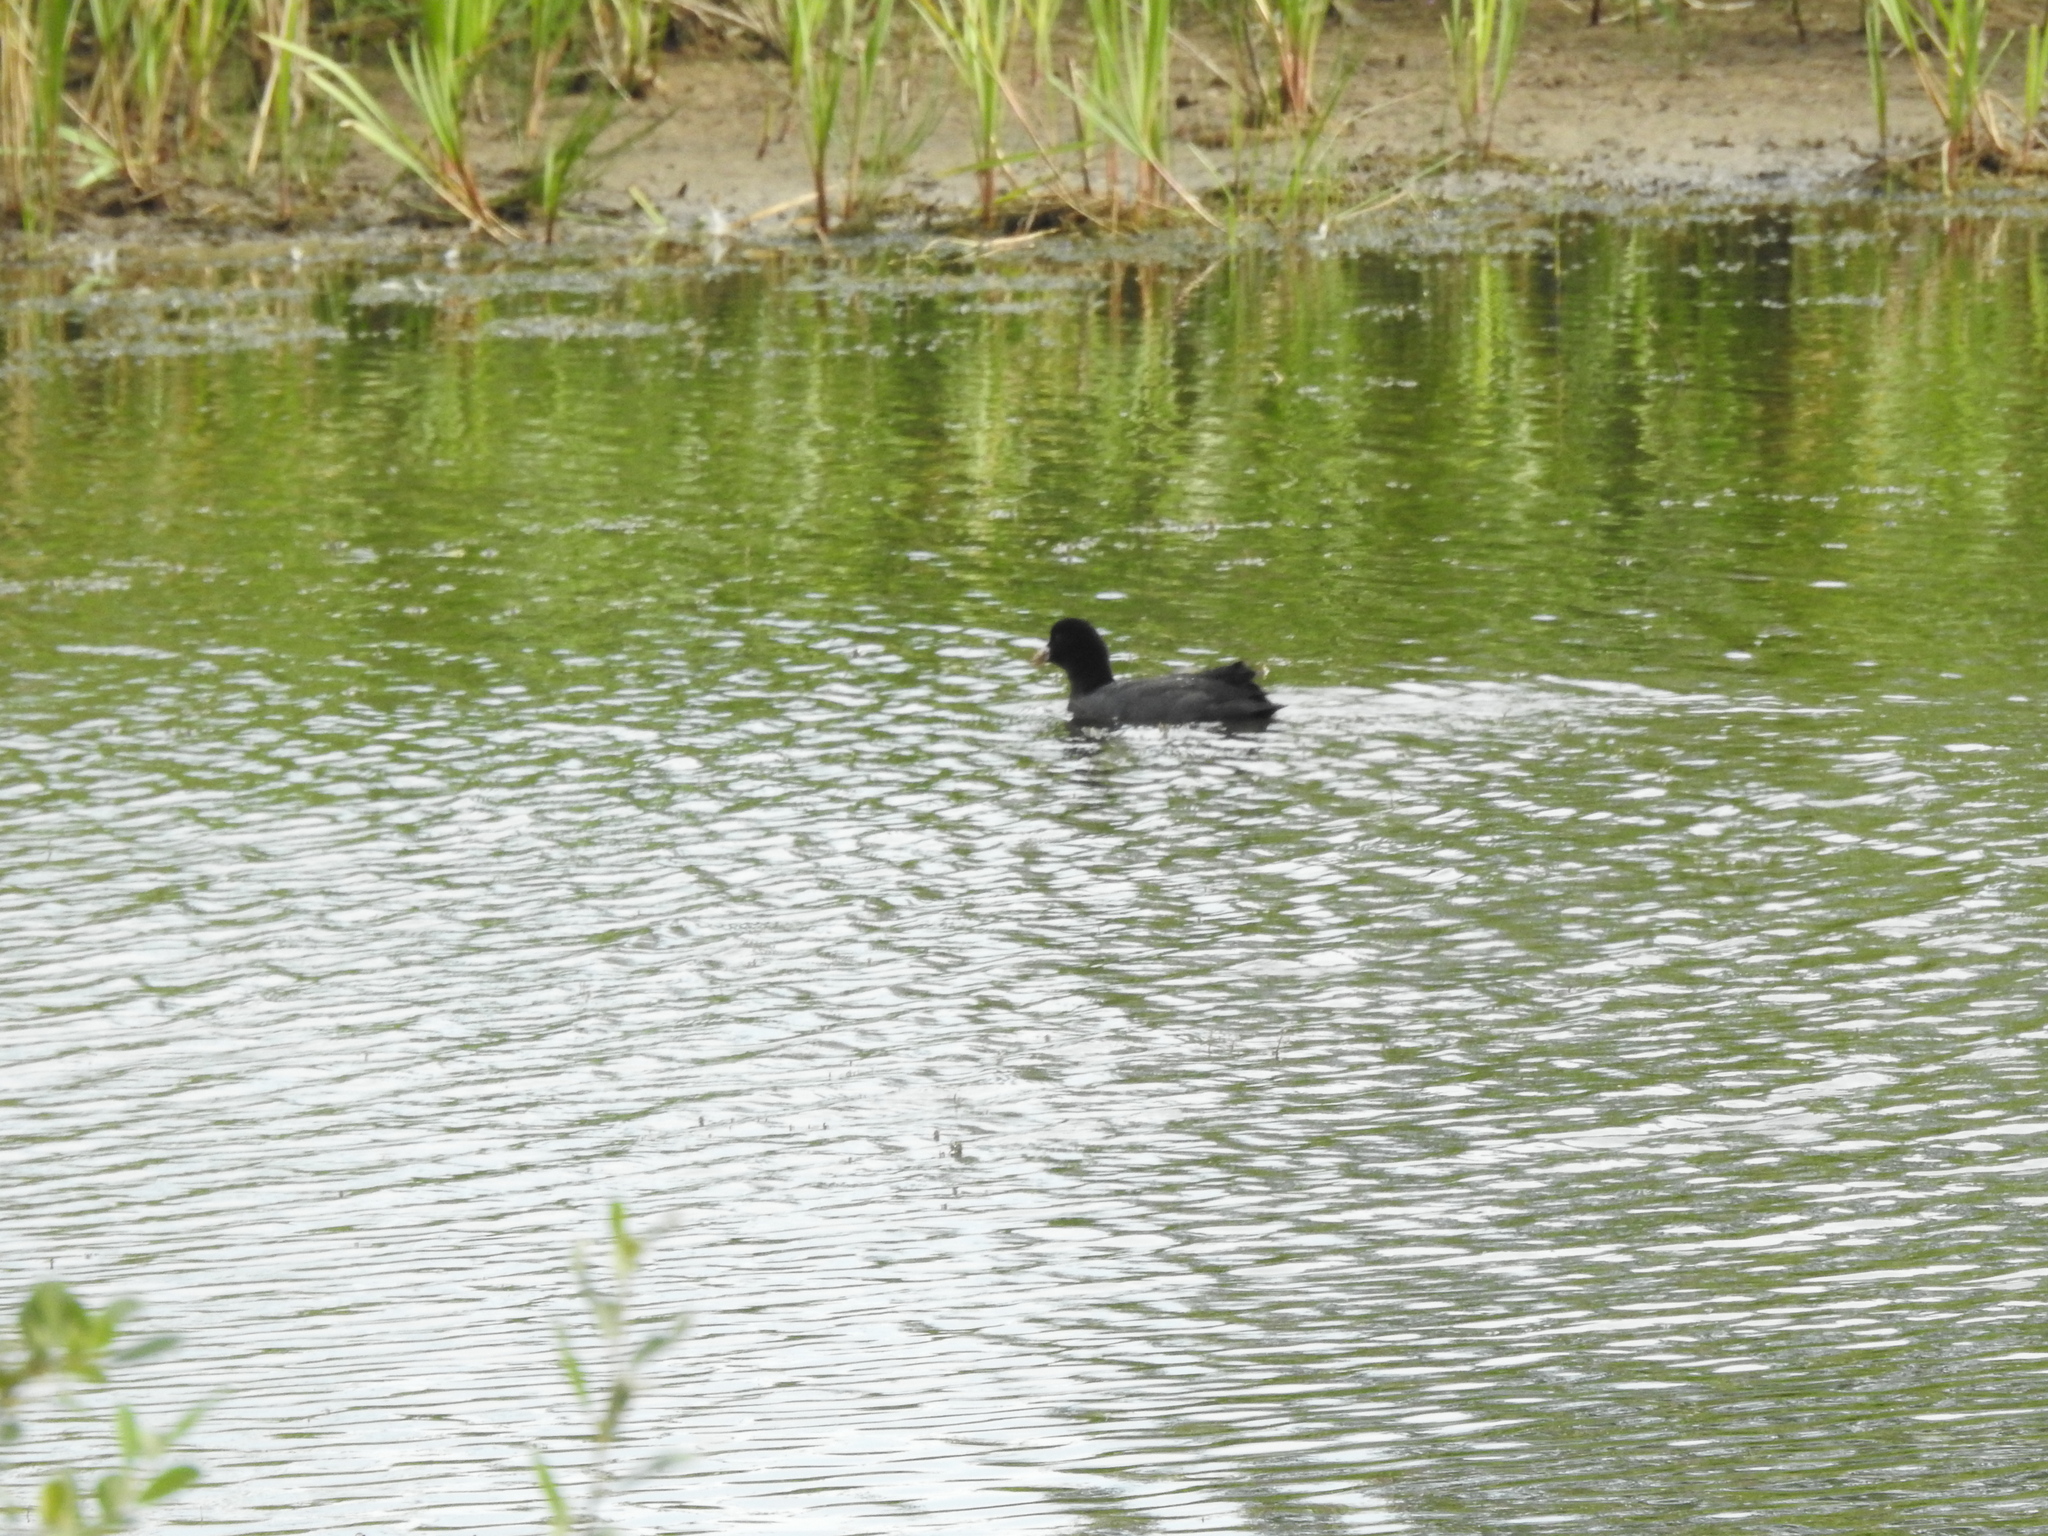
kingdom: Animalia
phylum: Chordata
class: Aves
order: Gruiformes
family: Rallidae
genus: Fulica
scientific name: Fulica atra
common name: Eurasian coot
